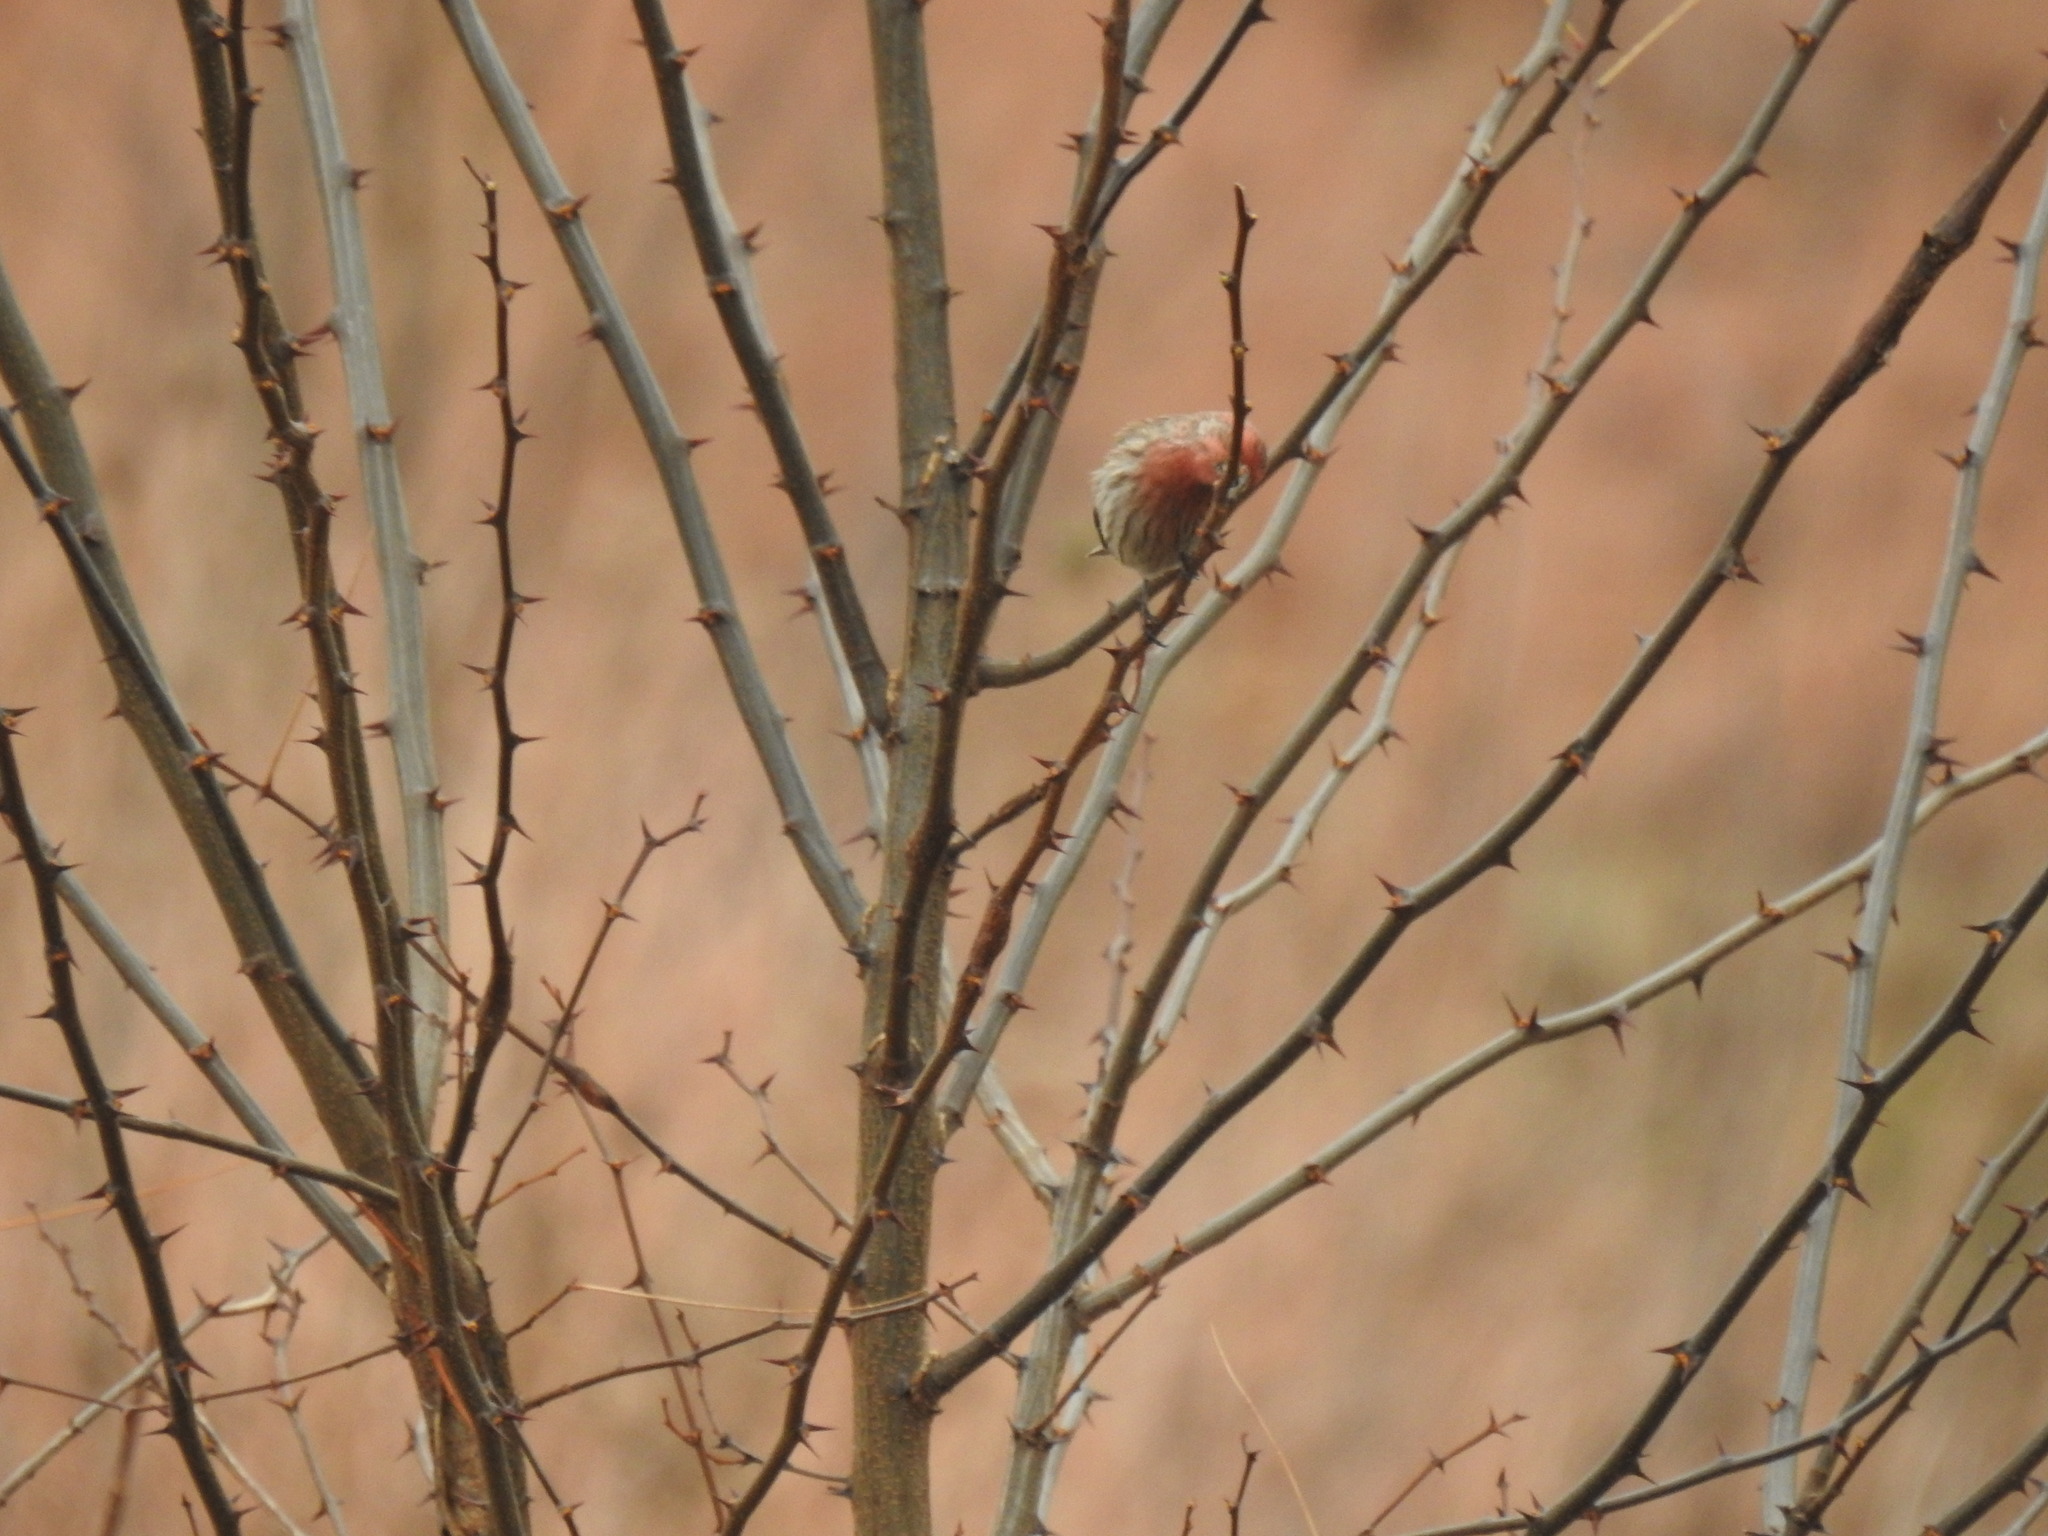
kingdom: Animalia
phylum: Chordata
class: Aves
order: Passeriformes
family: Fringillidae
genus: Haemorhous
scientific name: Haemorhous mexicanus
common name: House finch
